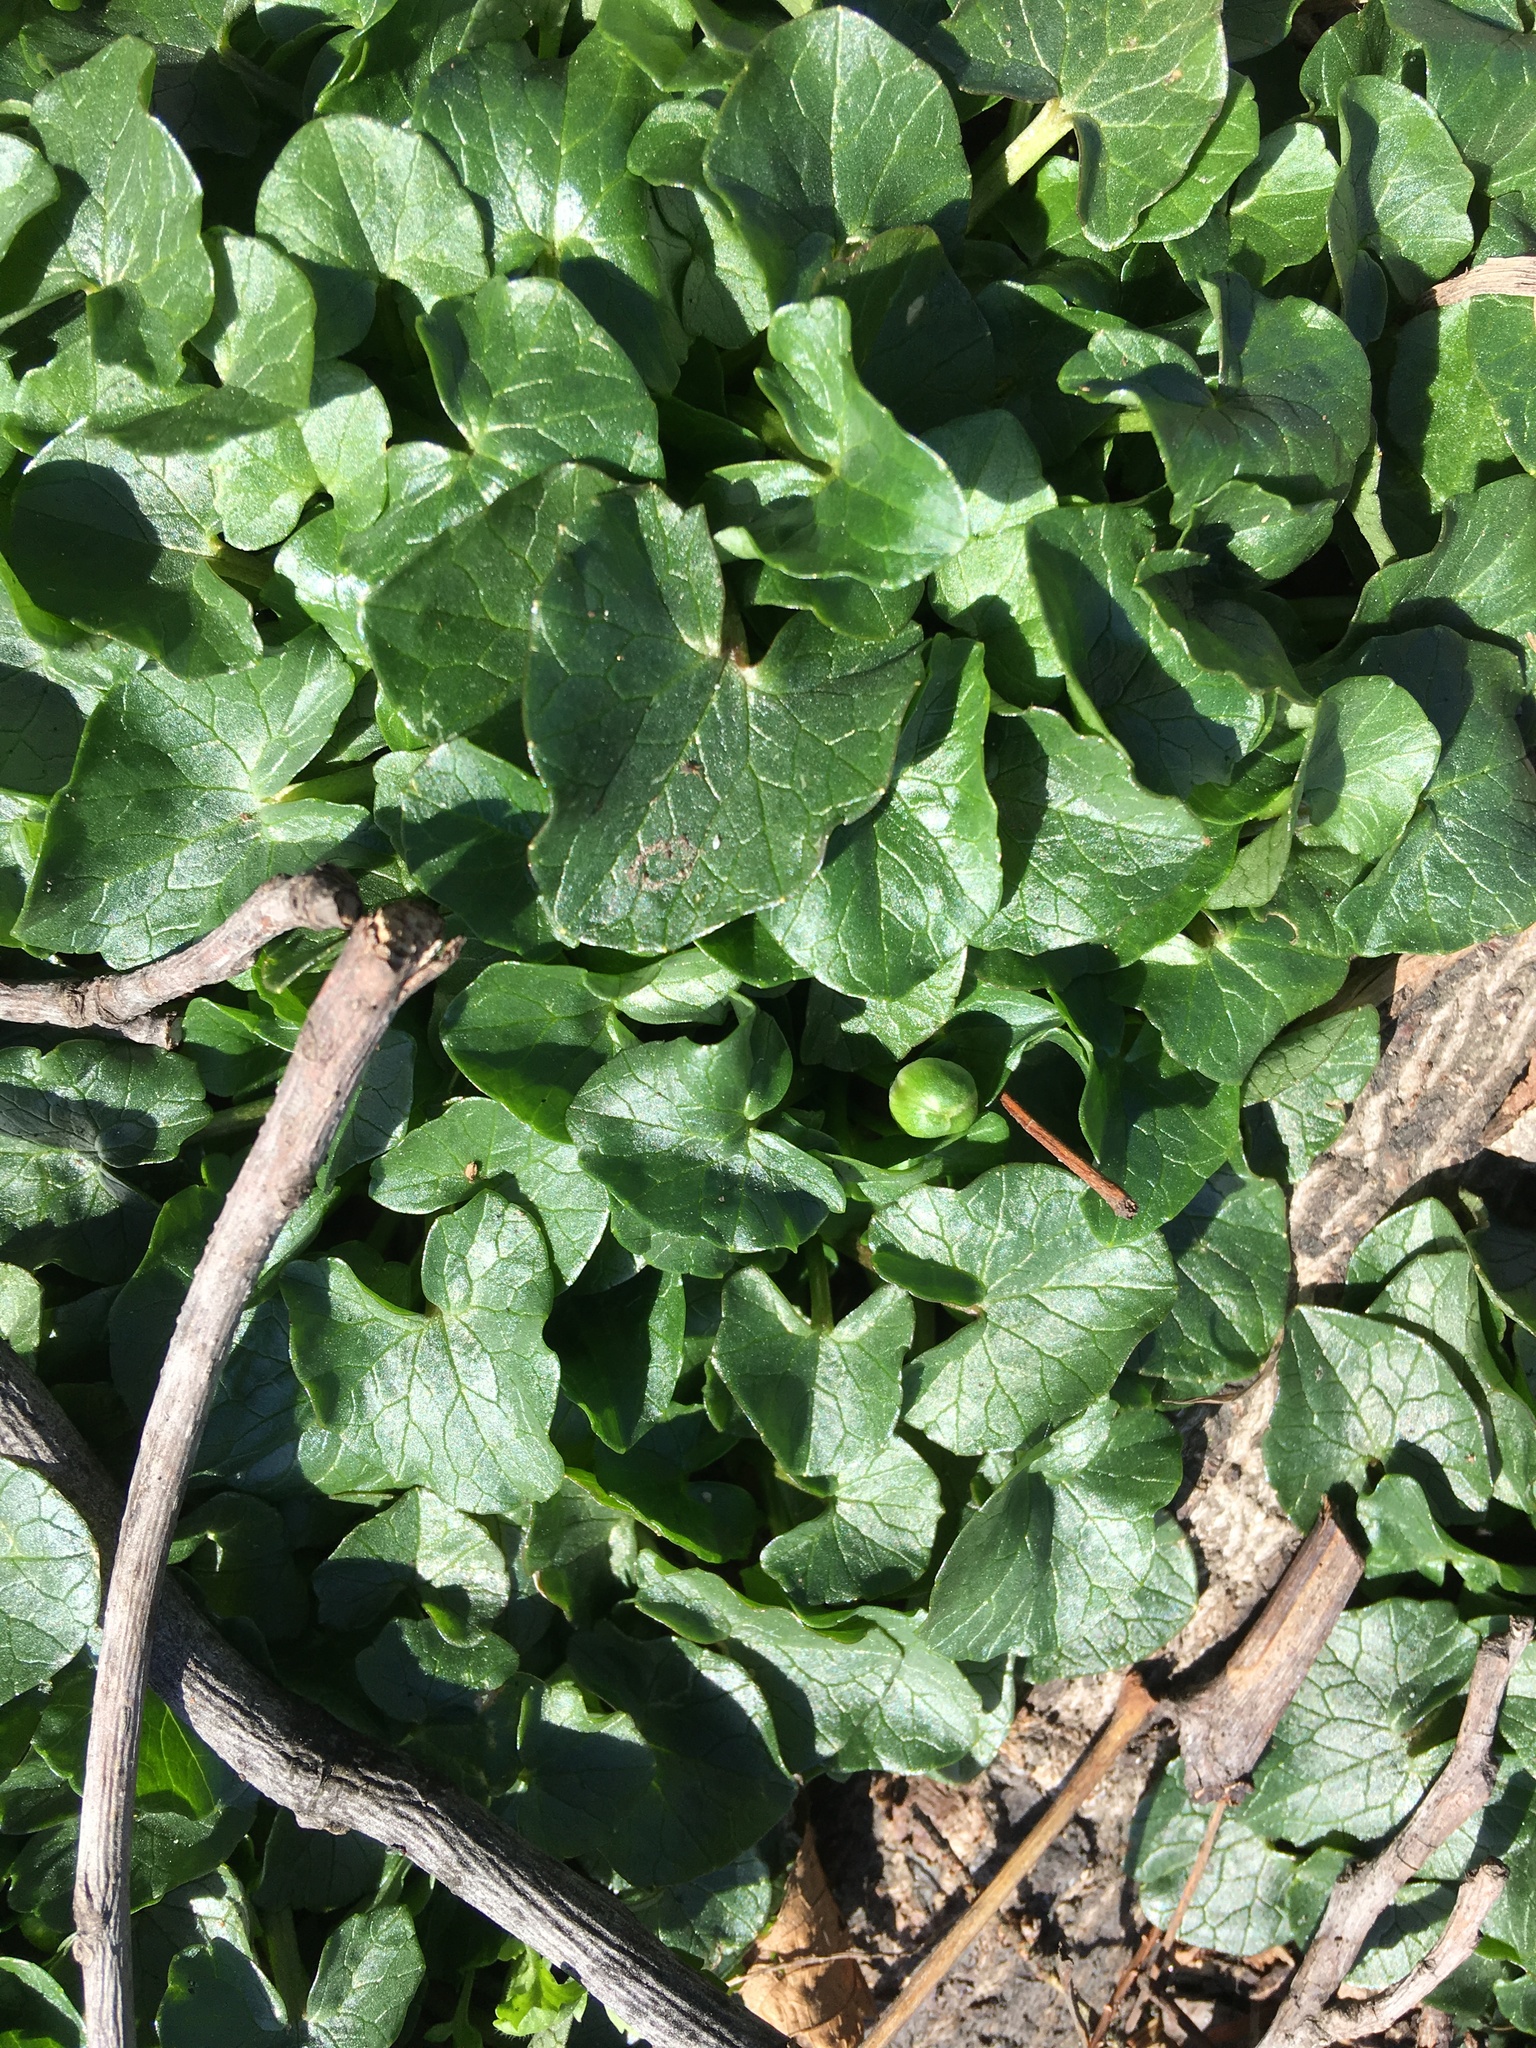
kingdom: Plantae
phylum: Tracheophyta
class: Magnoliopsida
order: Ranunculales
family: Ranunculaceae
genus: Ficaria
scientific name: Ficaria verna
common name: Lesser celandine
